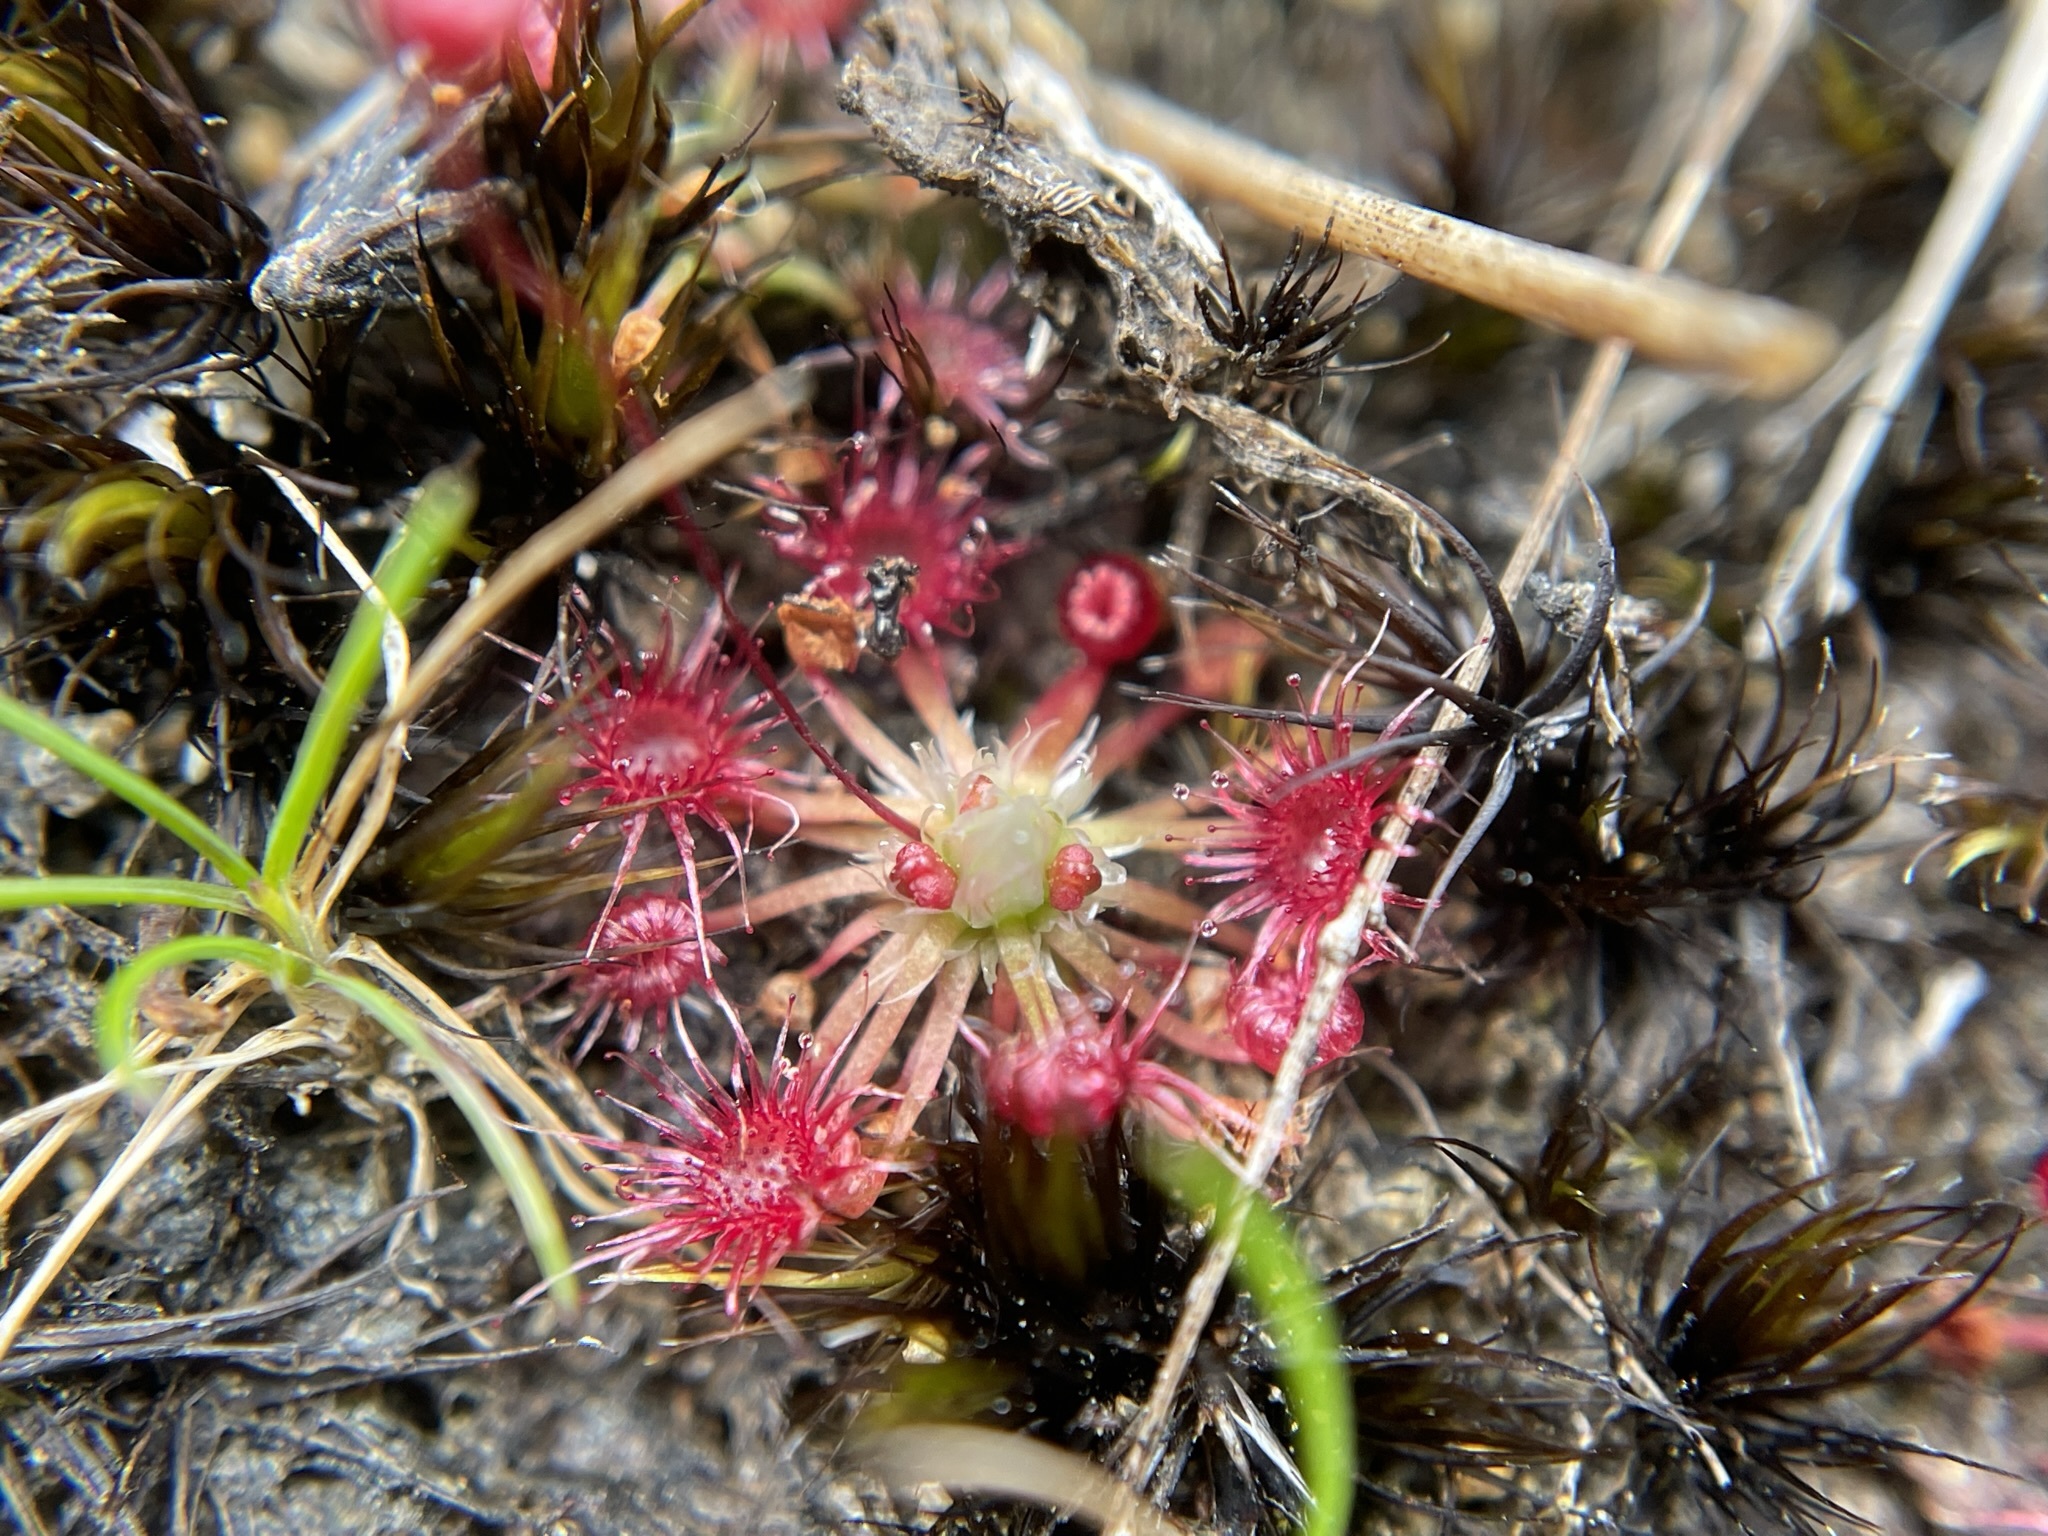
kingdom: Plantae
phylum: Tracheophyta
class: Magnoliopsida
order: Caryophyllales
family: Droseraceae
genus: Drosera
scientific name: Drosera pygmaea
